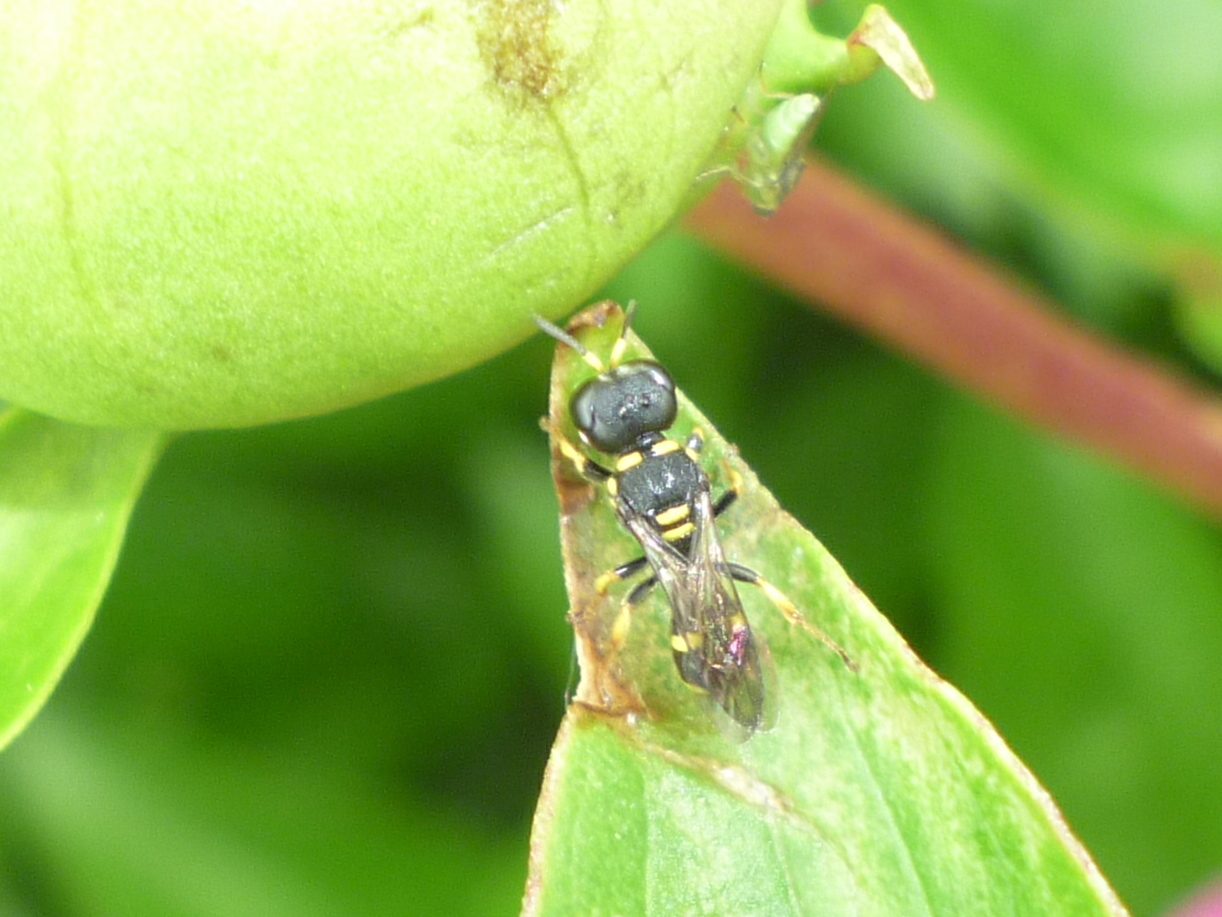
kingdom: Animalia
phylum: Arthropoda
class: Insecta
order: Hymenoptera
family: Crabronidae
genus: Ectemnius
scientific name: Ectemnius stirpicola
